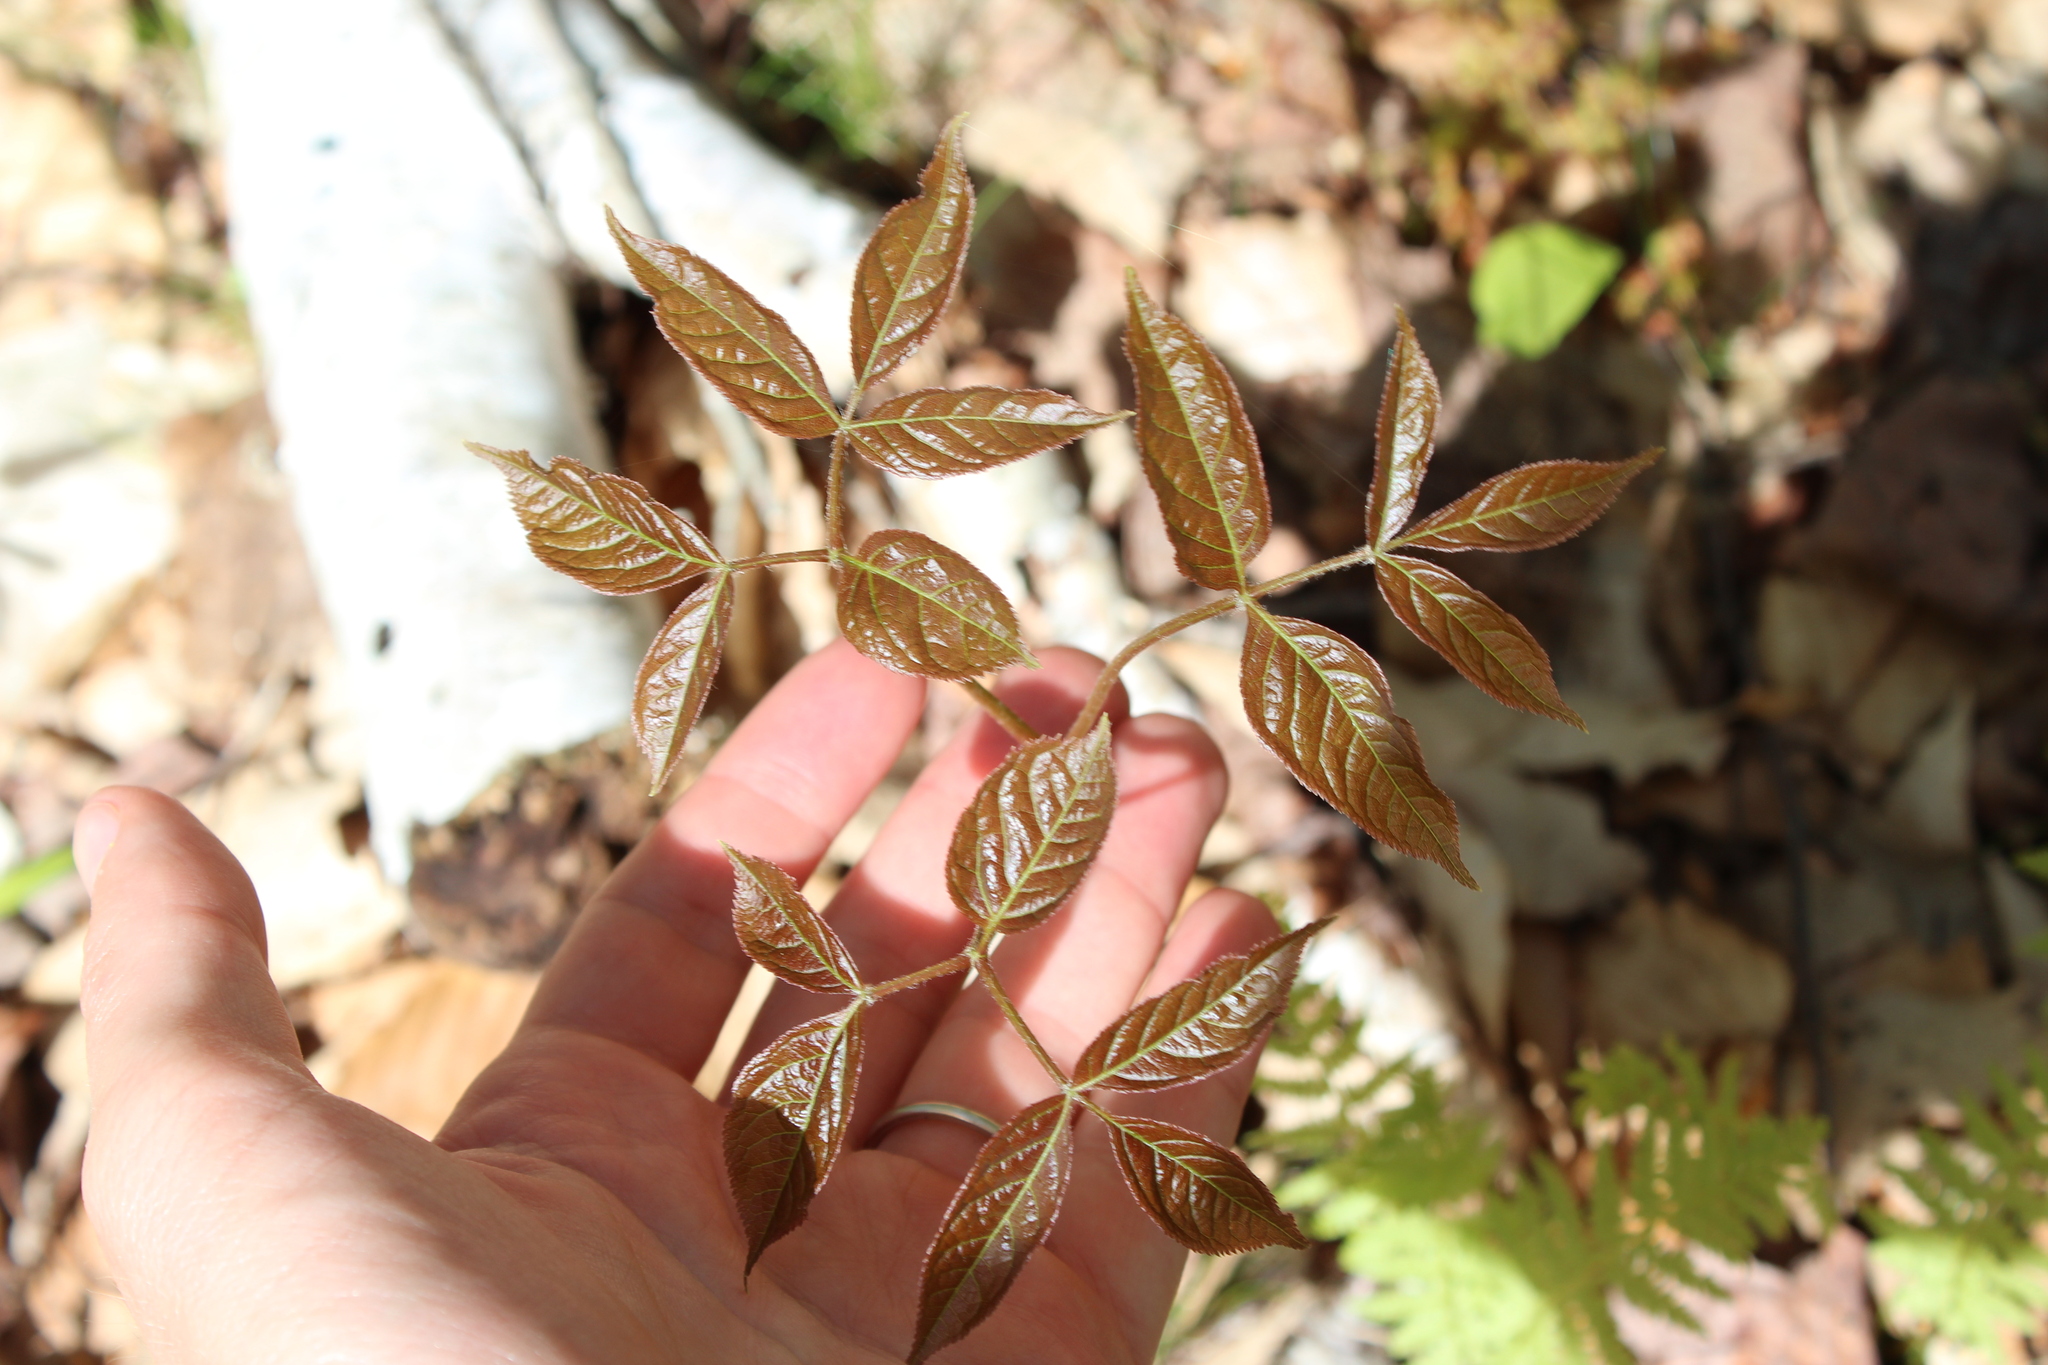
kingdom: Plantae
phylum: Tracheophyta
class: Magnoliopsida
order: Apiales
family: Araliaceae
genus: Aralia
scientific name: Aralia nudicaulis
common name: Wild sarsaparilla
